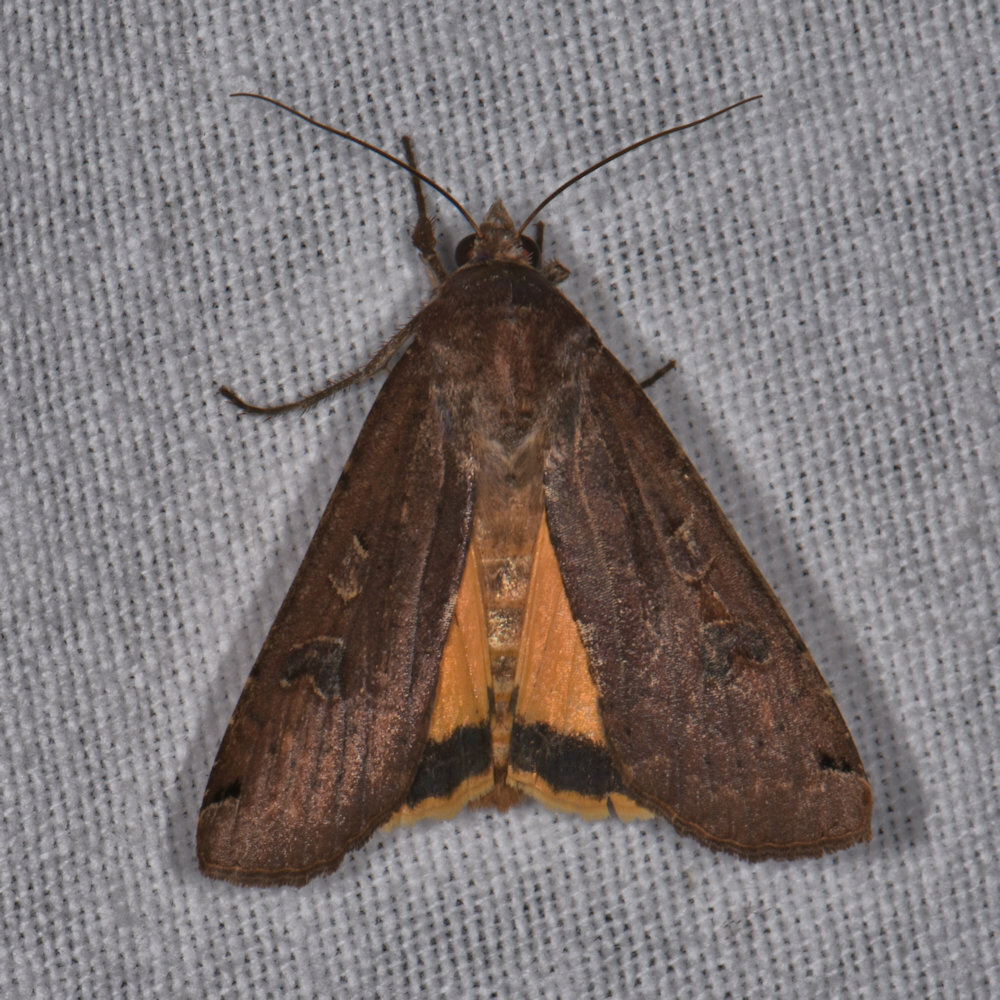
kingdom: Animalia
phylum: Arthropoda
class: Insecta
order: Lepidoptera
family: Noctuidae
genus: Noctua
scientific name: Noctua pronuba
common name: Large yellow underwing
